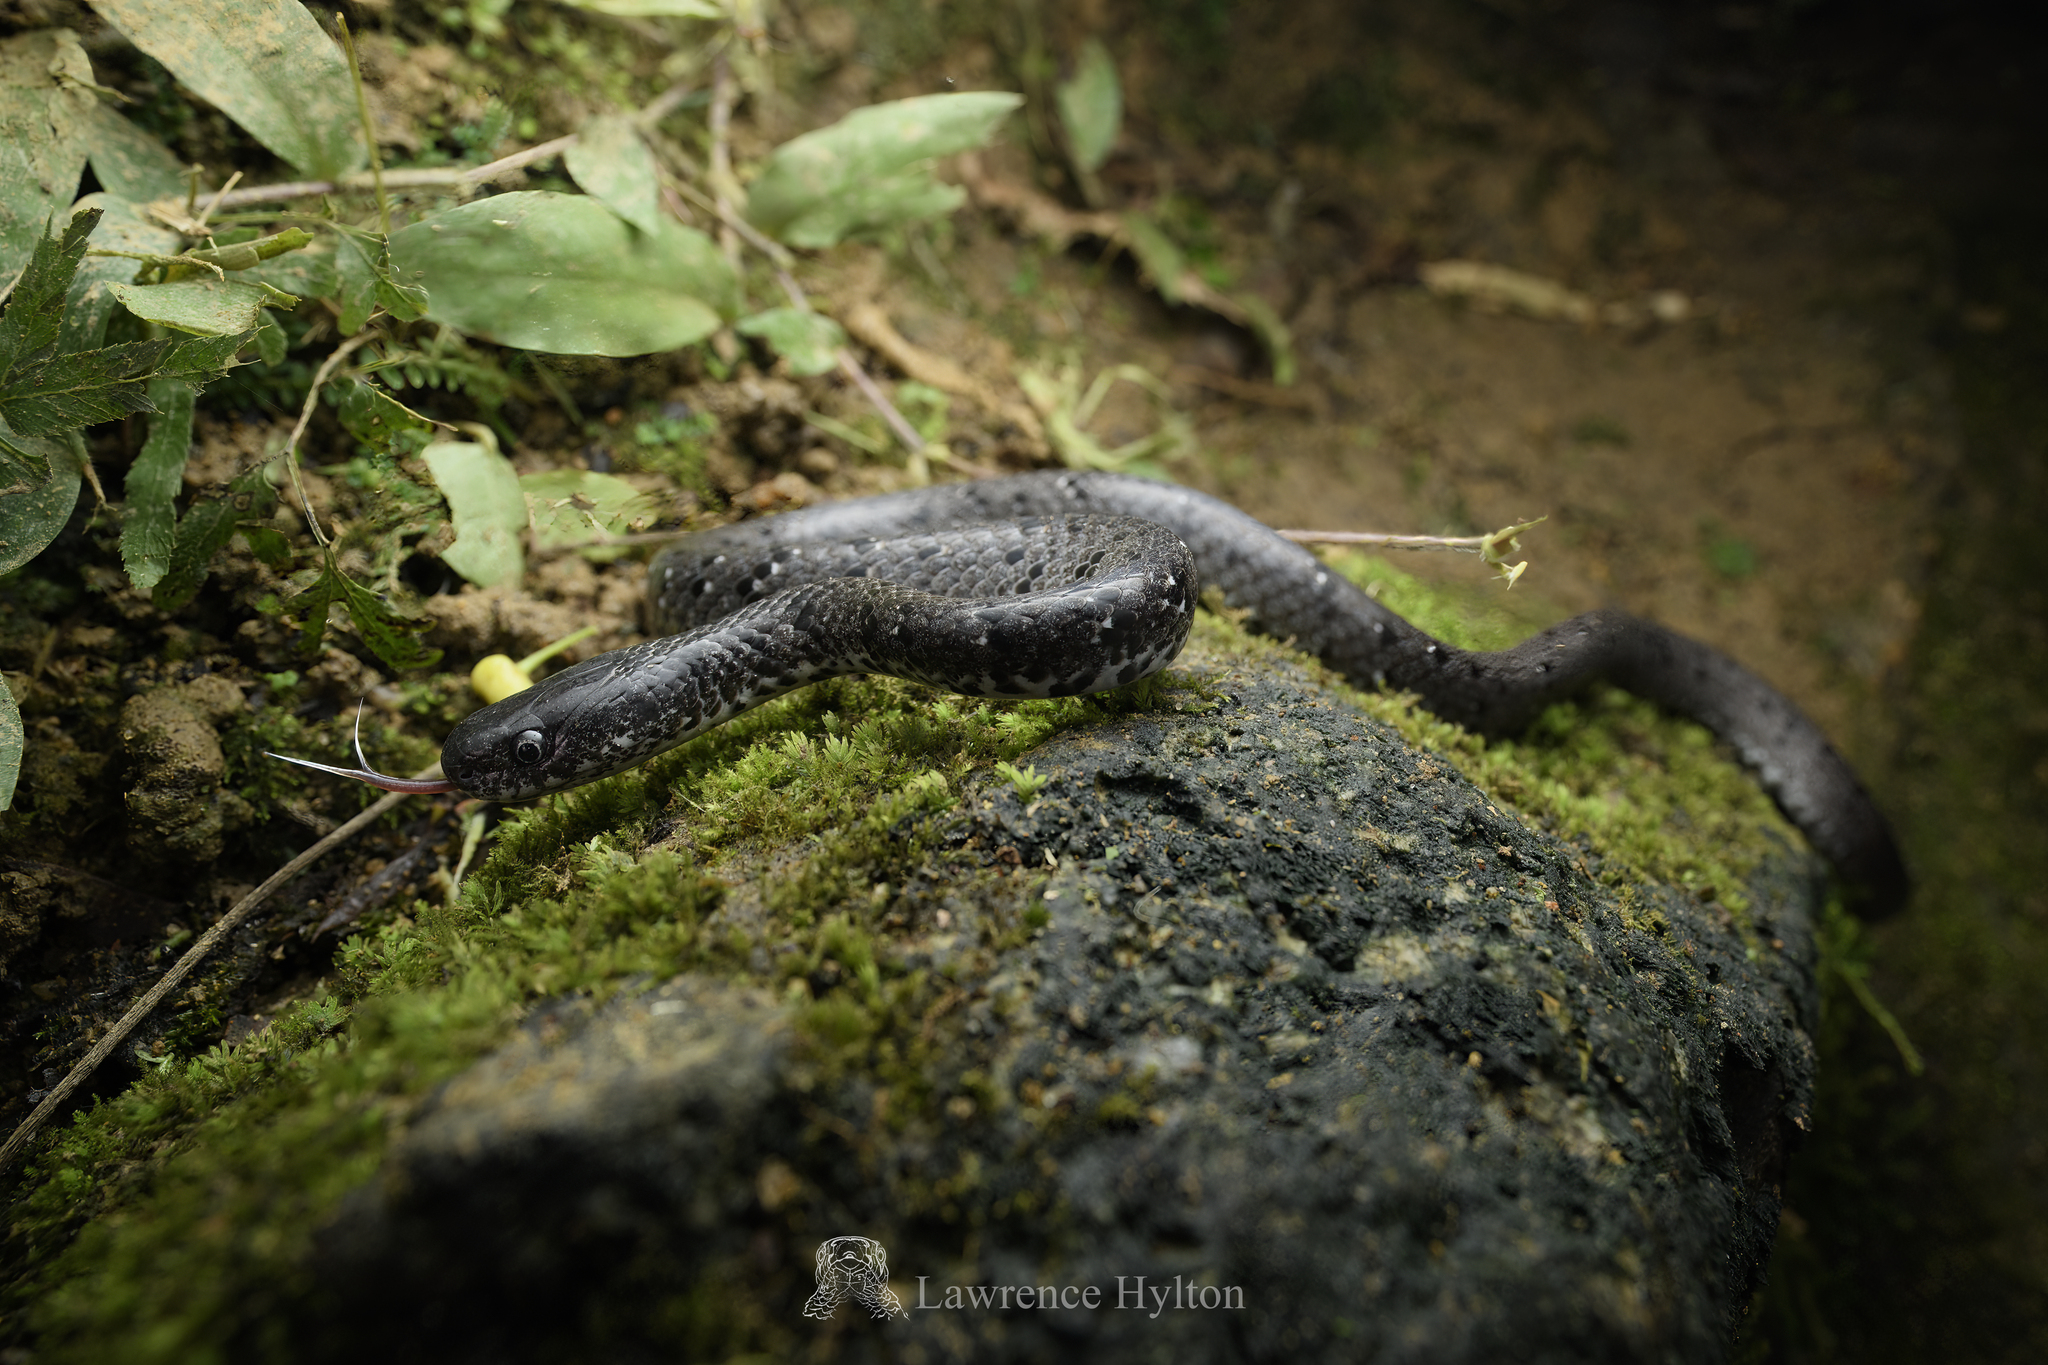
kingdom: Animalia
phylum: Chordata
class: Squamata
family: Pareidae
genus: Pareas
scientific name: Pareas margaritophorus
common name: Mountain slug snake
